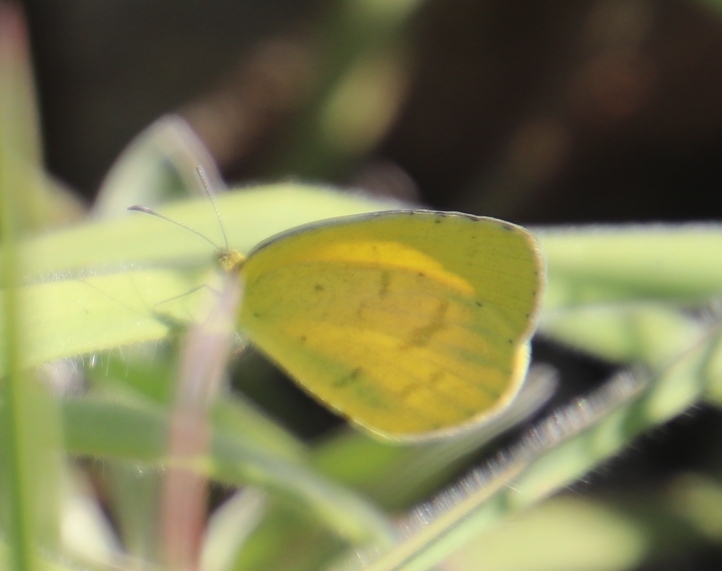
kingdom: Animalia
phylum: Arthropoda
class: Insecta
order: Lepidoptera
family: Pieridae
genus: Eurema
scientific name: Eurema brigitta
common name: Small grass yellow
